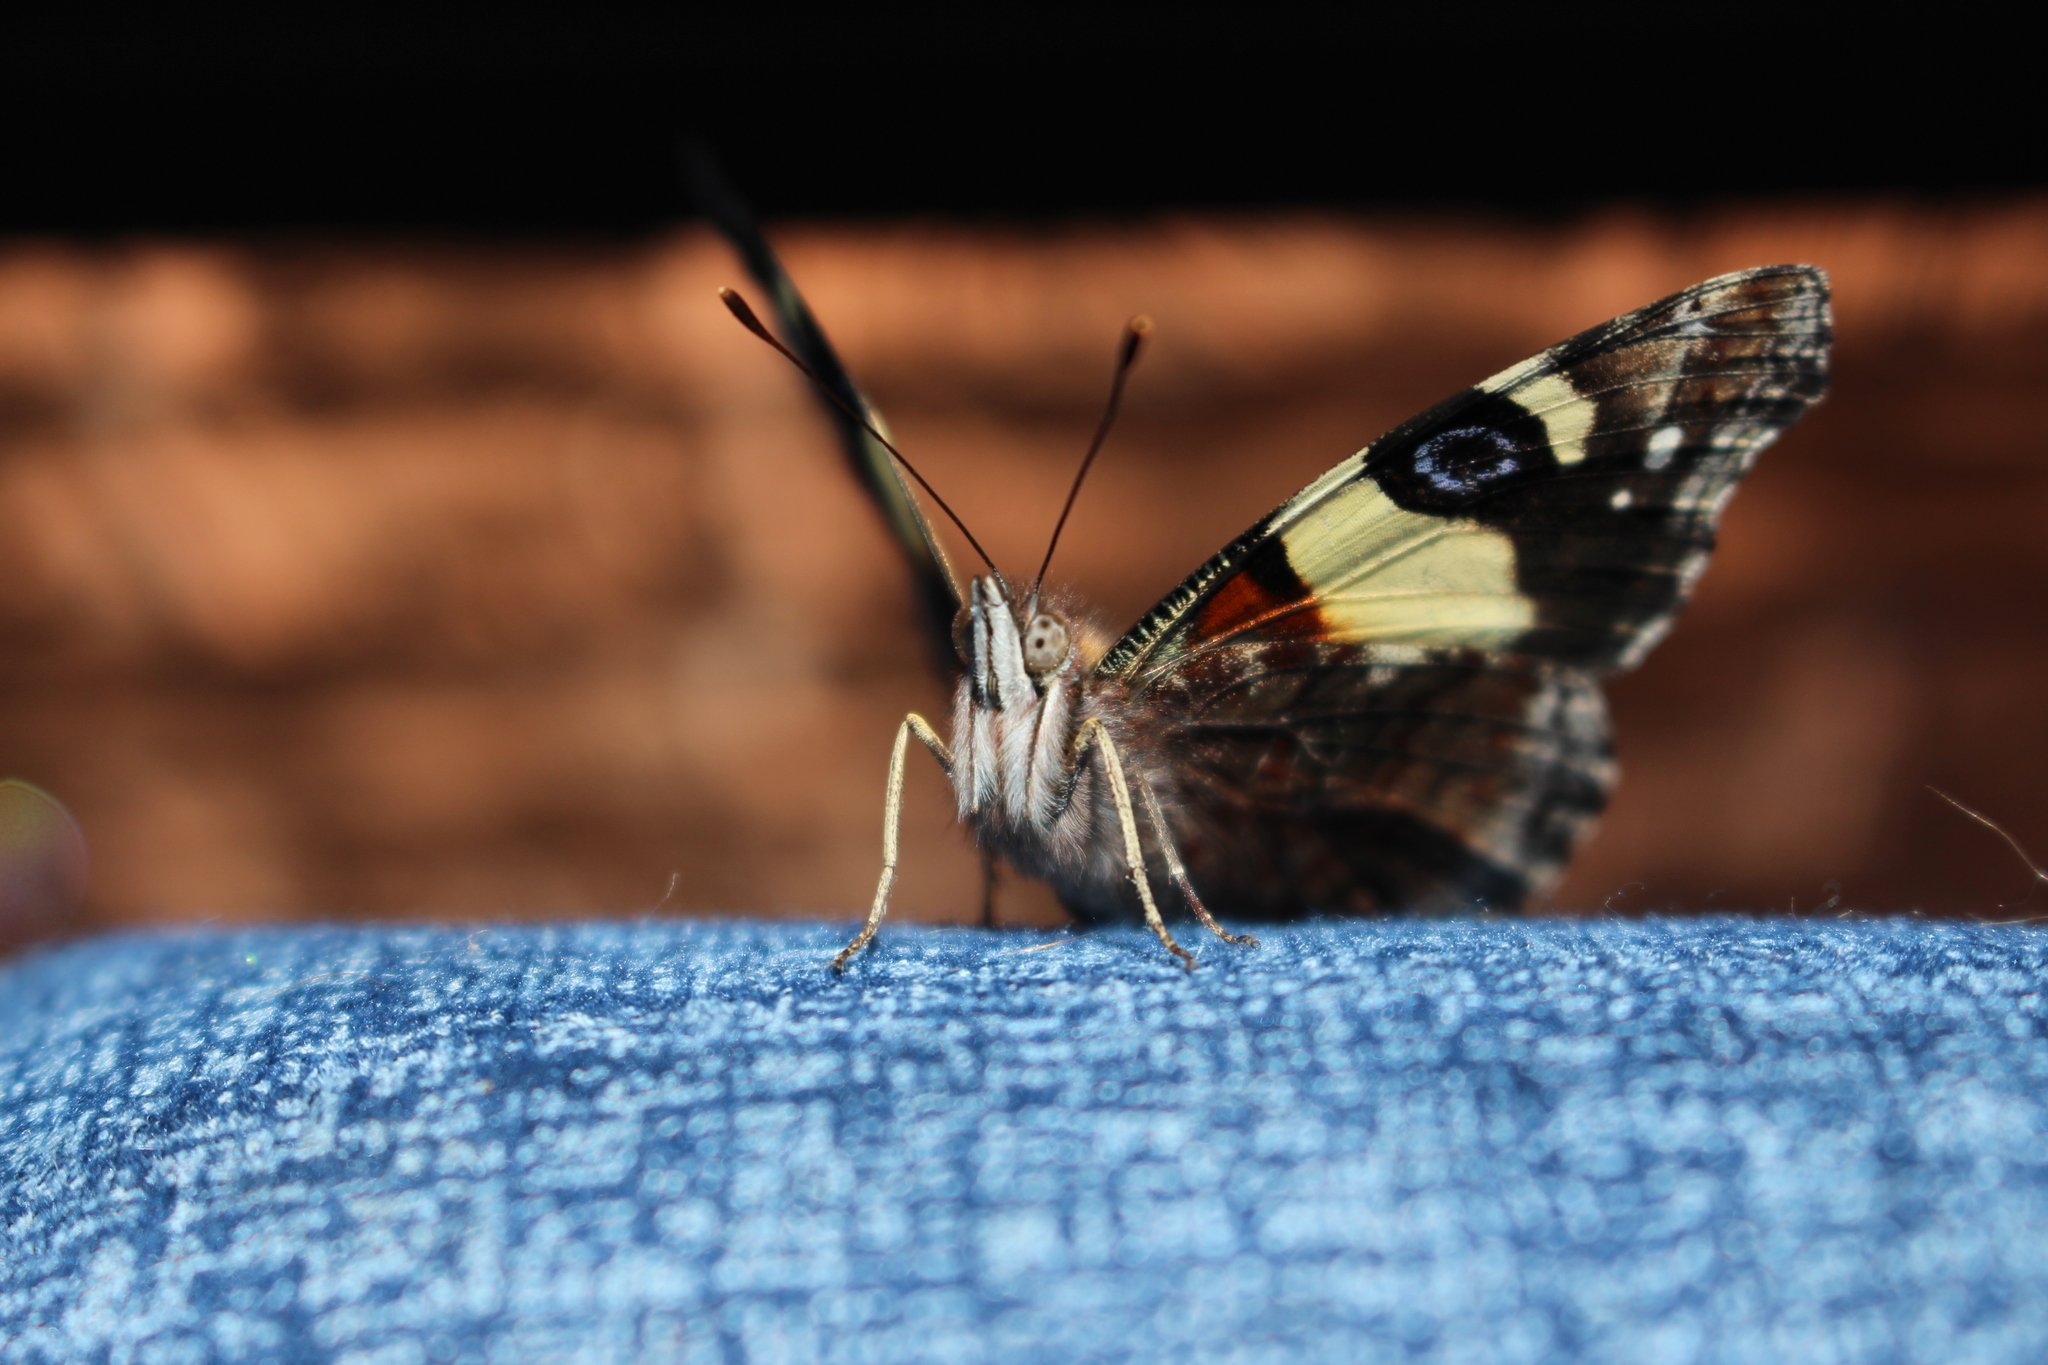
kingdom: Animalia
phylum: Arthropoda
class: Insecta
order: Lepidoptera
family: Nymphalidae
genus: Vanessa
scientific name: Vanessa itea
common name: Yellow admiral
